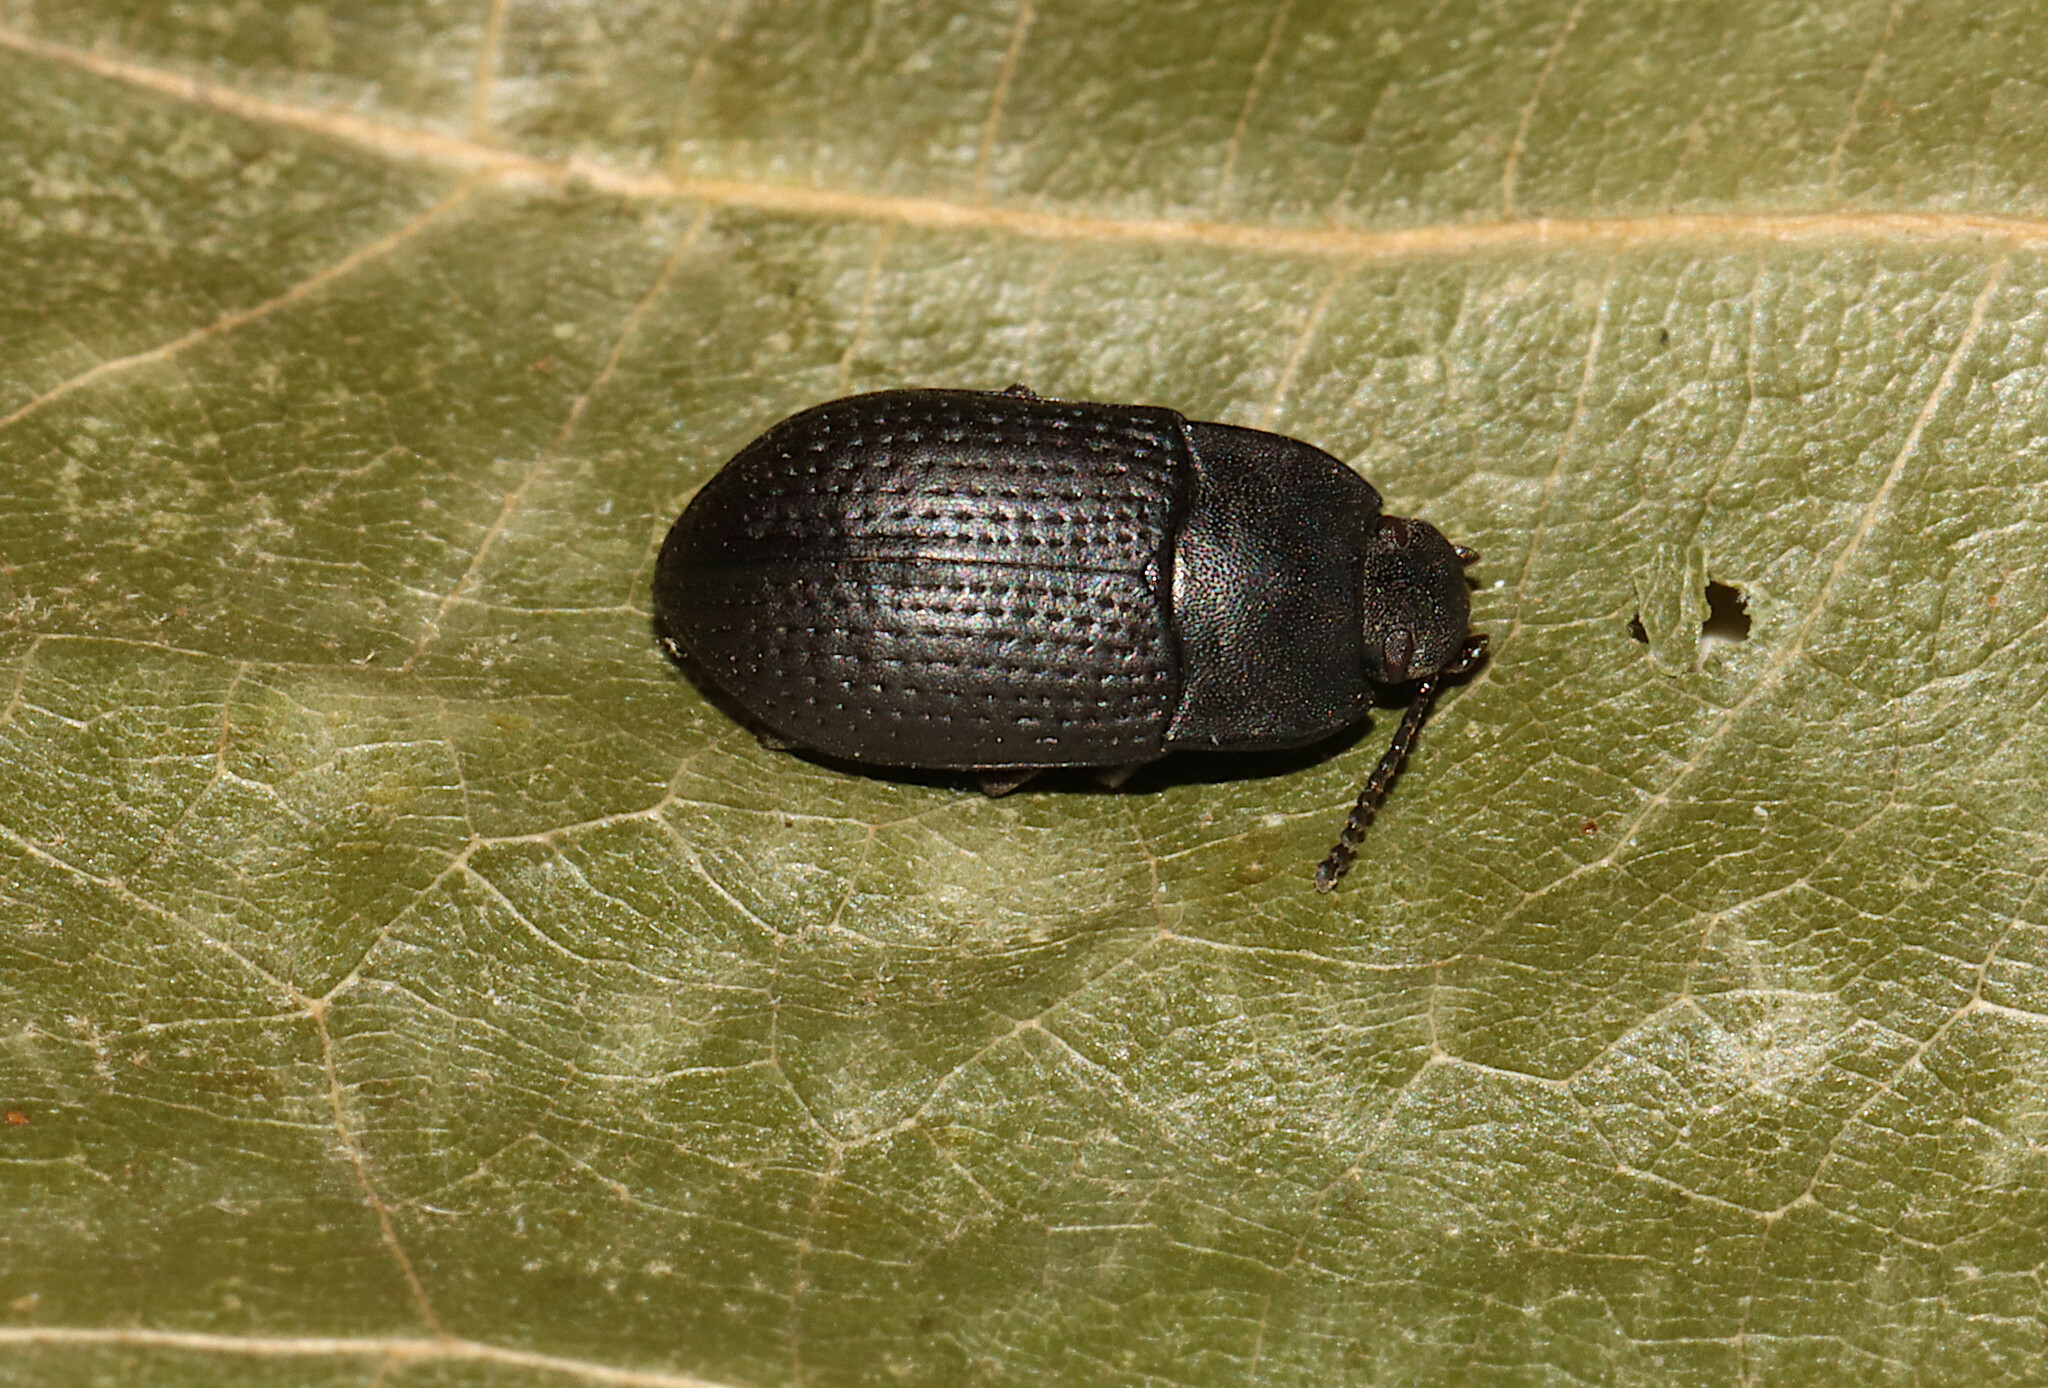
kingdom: Animalia
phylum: Arthropoda
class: Insecta
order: Coleoptera
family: Tenebrionidae
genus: Asiopus
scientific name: Asiopus
